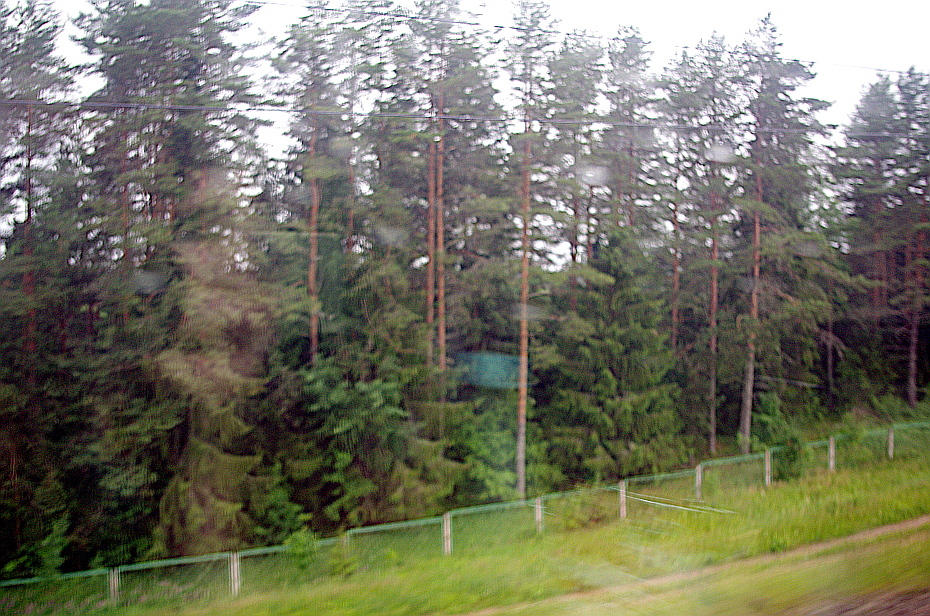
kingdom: Plantae
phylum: Tracheophyta
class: Pinopsida
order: Pinales
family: Pinaceae
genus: Pinus
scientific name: Pinus sylvestris
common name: Scots pine
